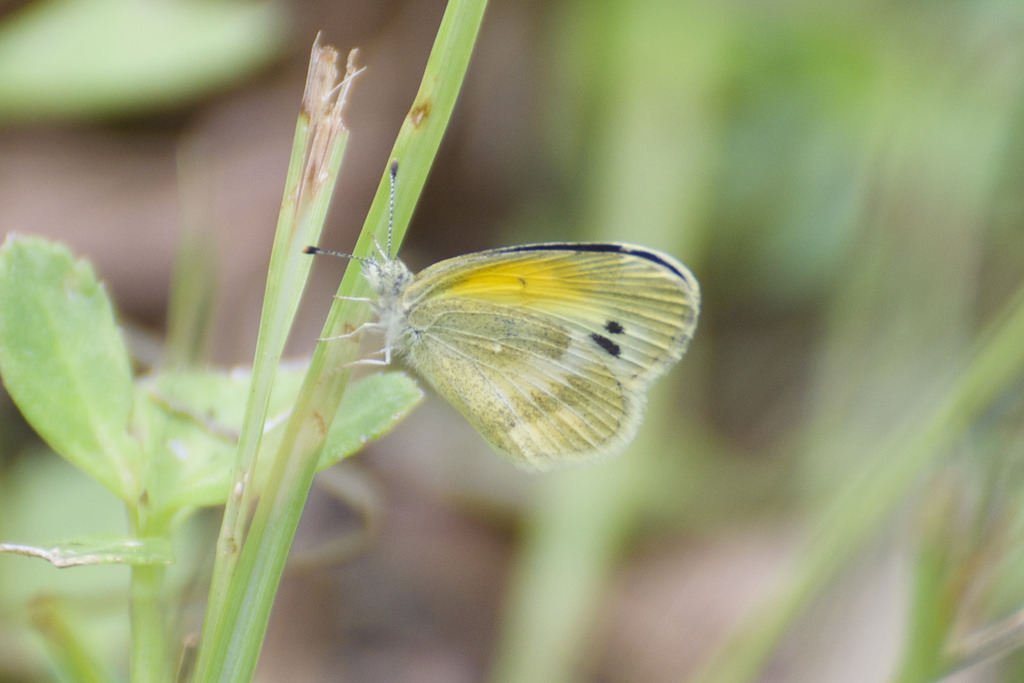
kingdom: Animalia
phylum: Arthropoda
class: Insecta
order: Lepidoptera
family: Pieridae
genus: Nathalis
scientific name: Nathalis iole
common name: Dainty sulphur
